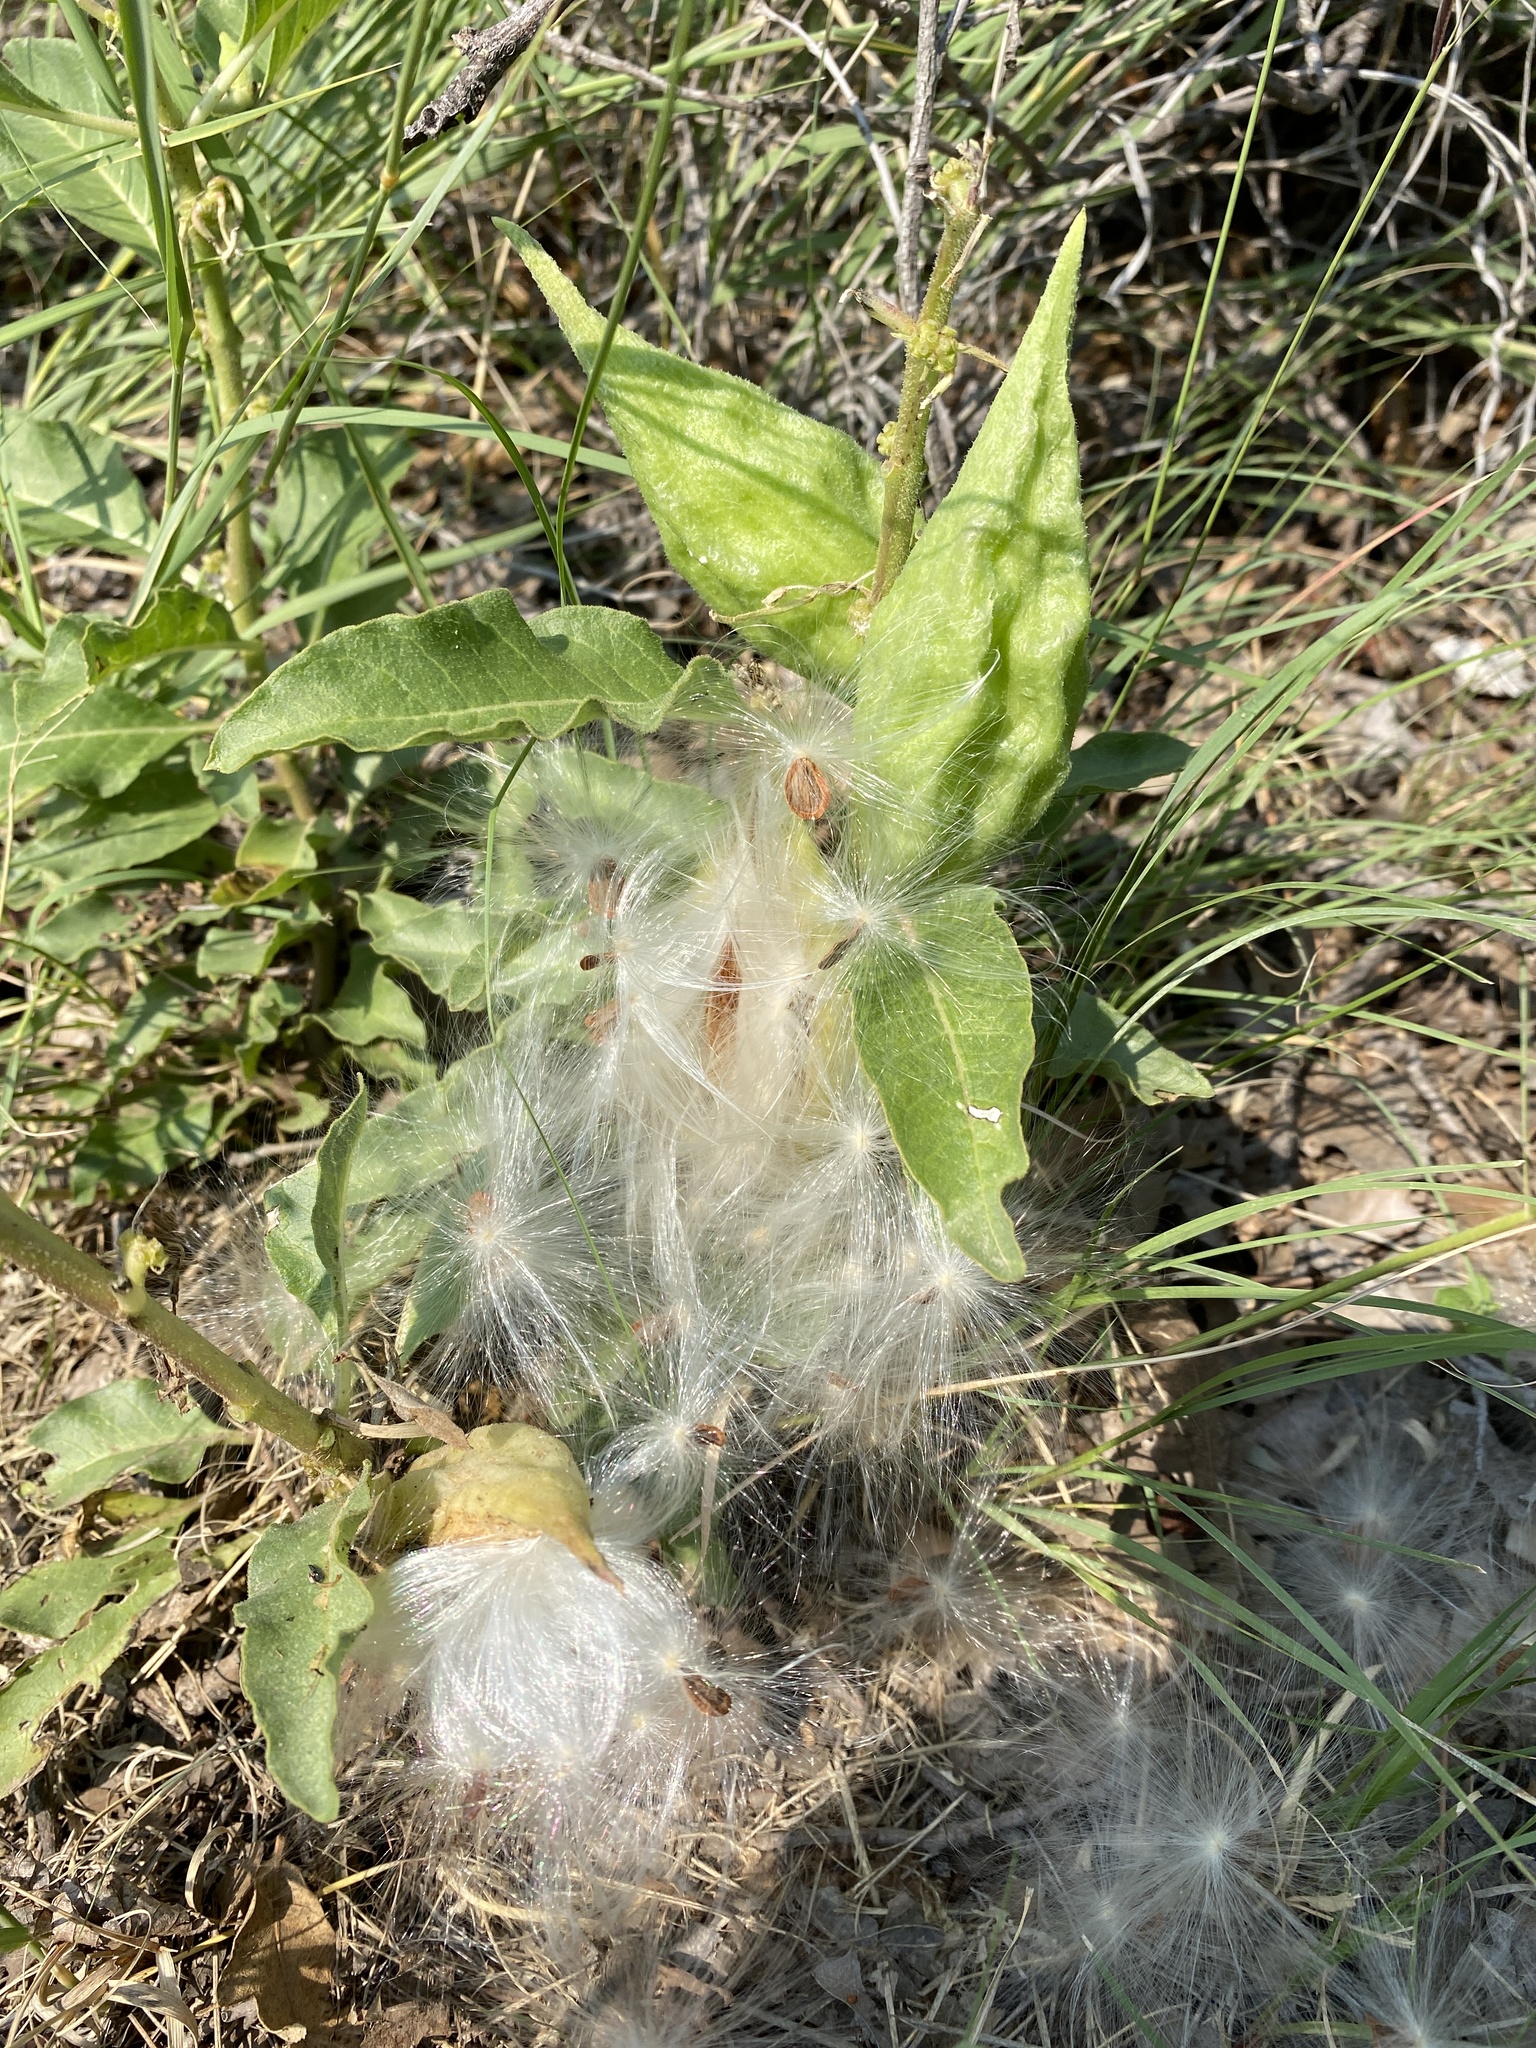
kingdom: Plantae
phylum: Tracheophyta
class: Magnoliopsida
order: Gentianales
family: Apocynaceae
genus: Asclepias
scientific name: Asclepias oenotheroides
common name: Zizotes milkweed
